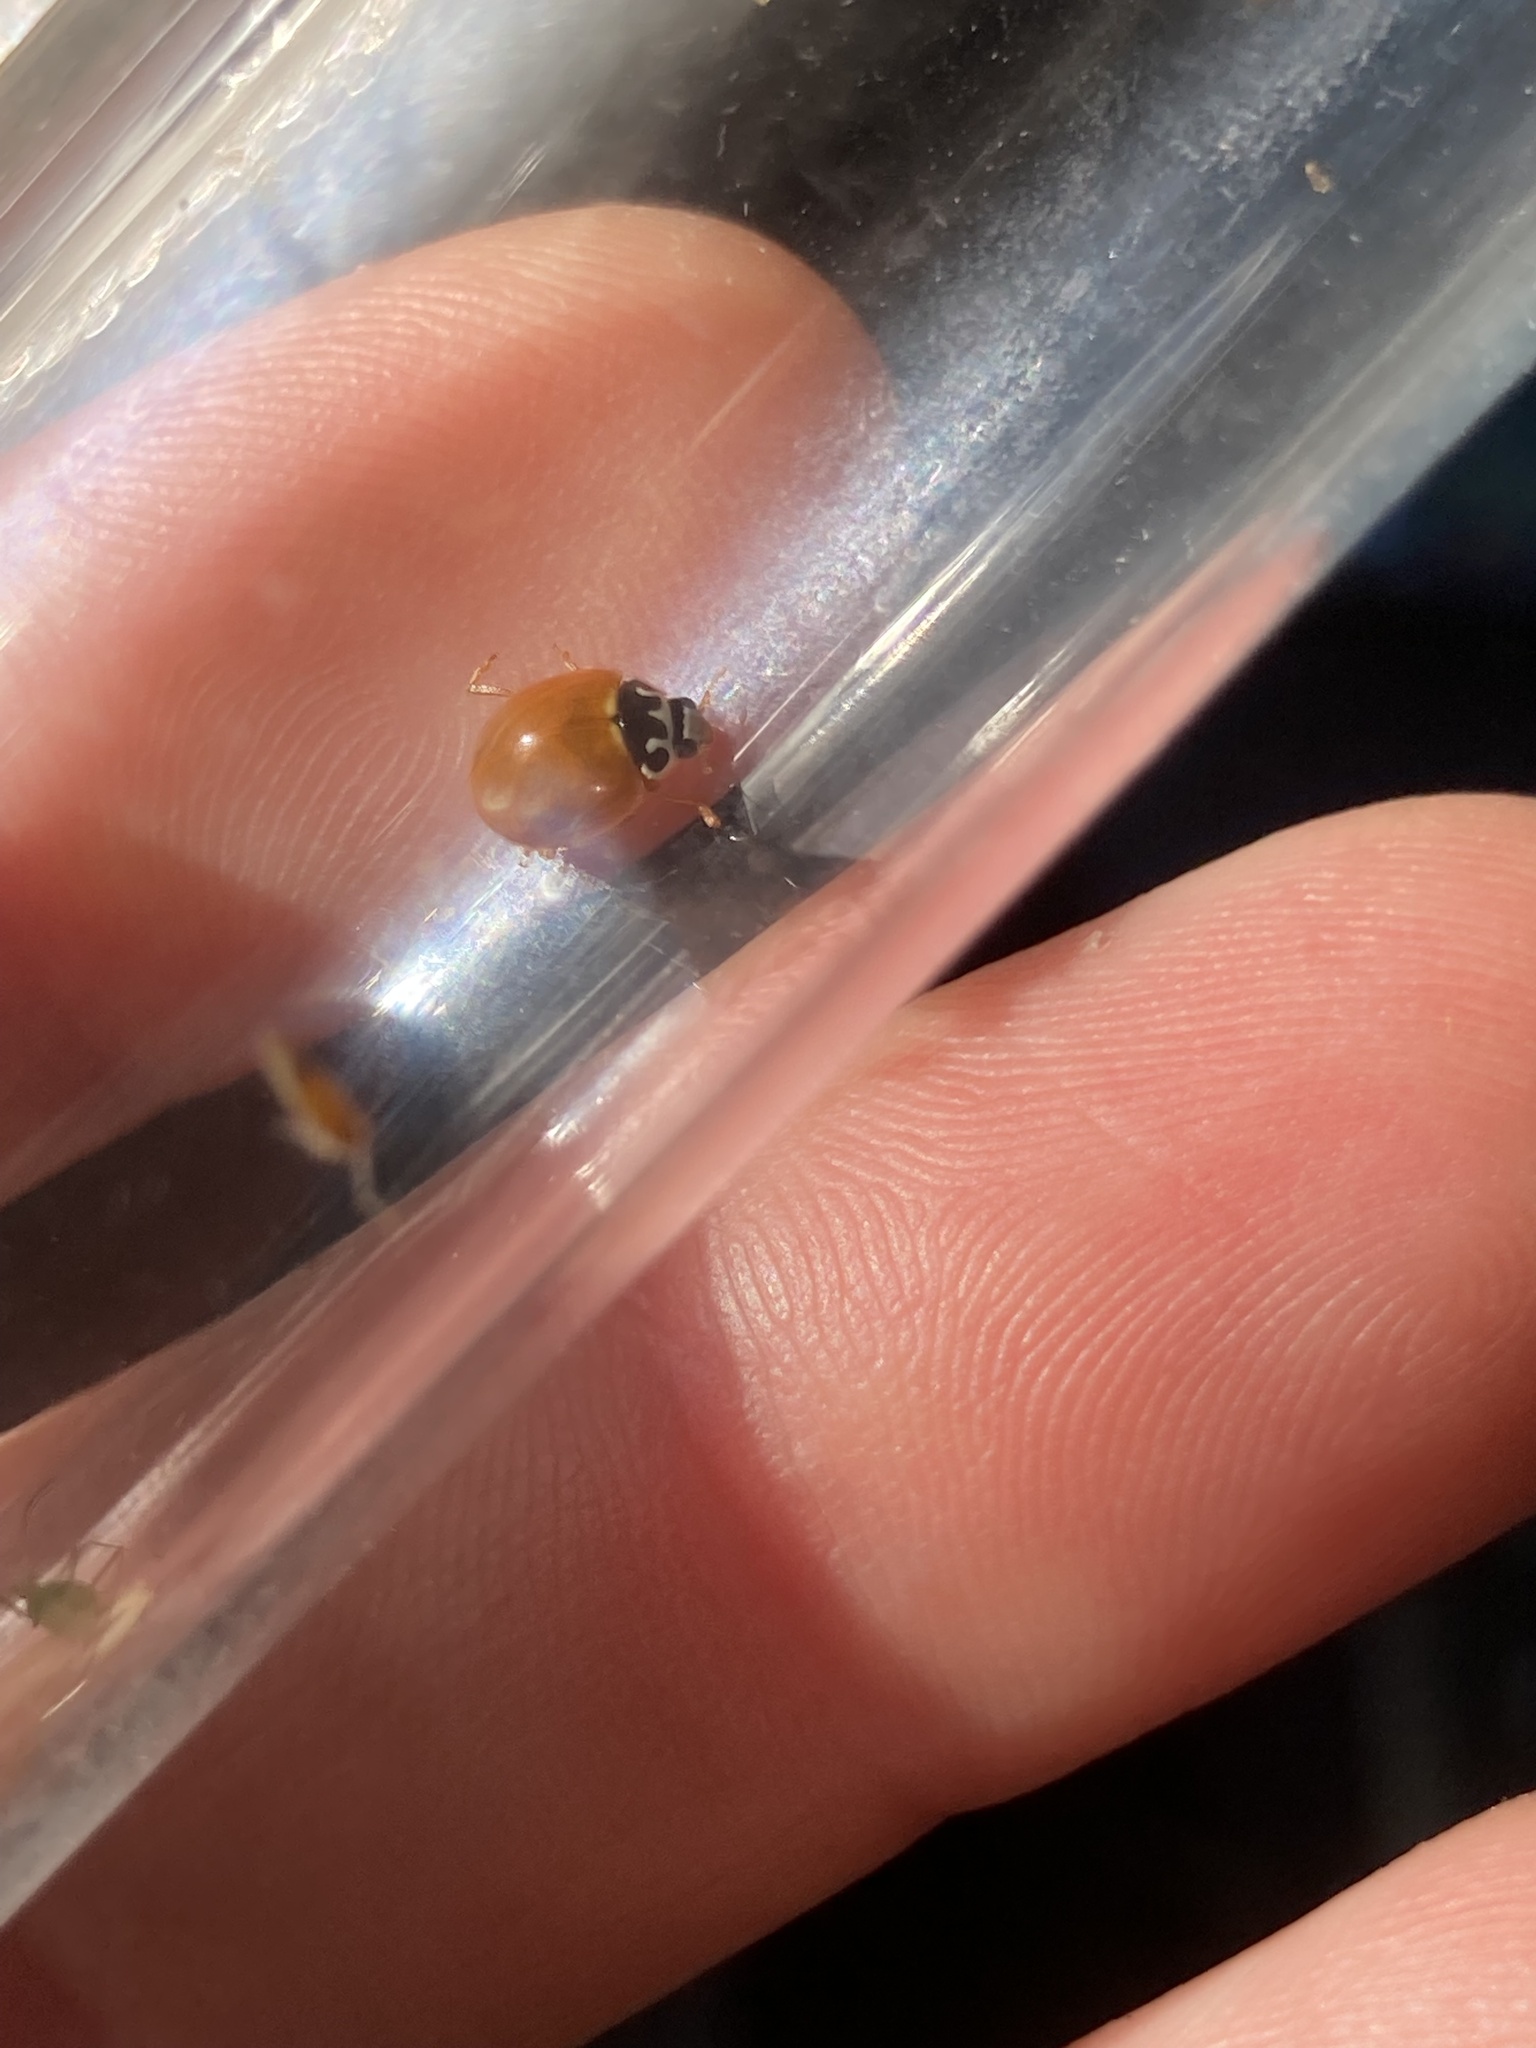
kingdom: Animalia
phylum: Arthropoda
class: Insecta
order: Coleoptera
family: Coccinellidae
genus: Cycloneda
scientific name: Cycloneda munda
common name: Polished lady beetle
